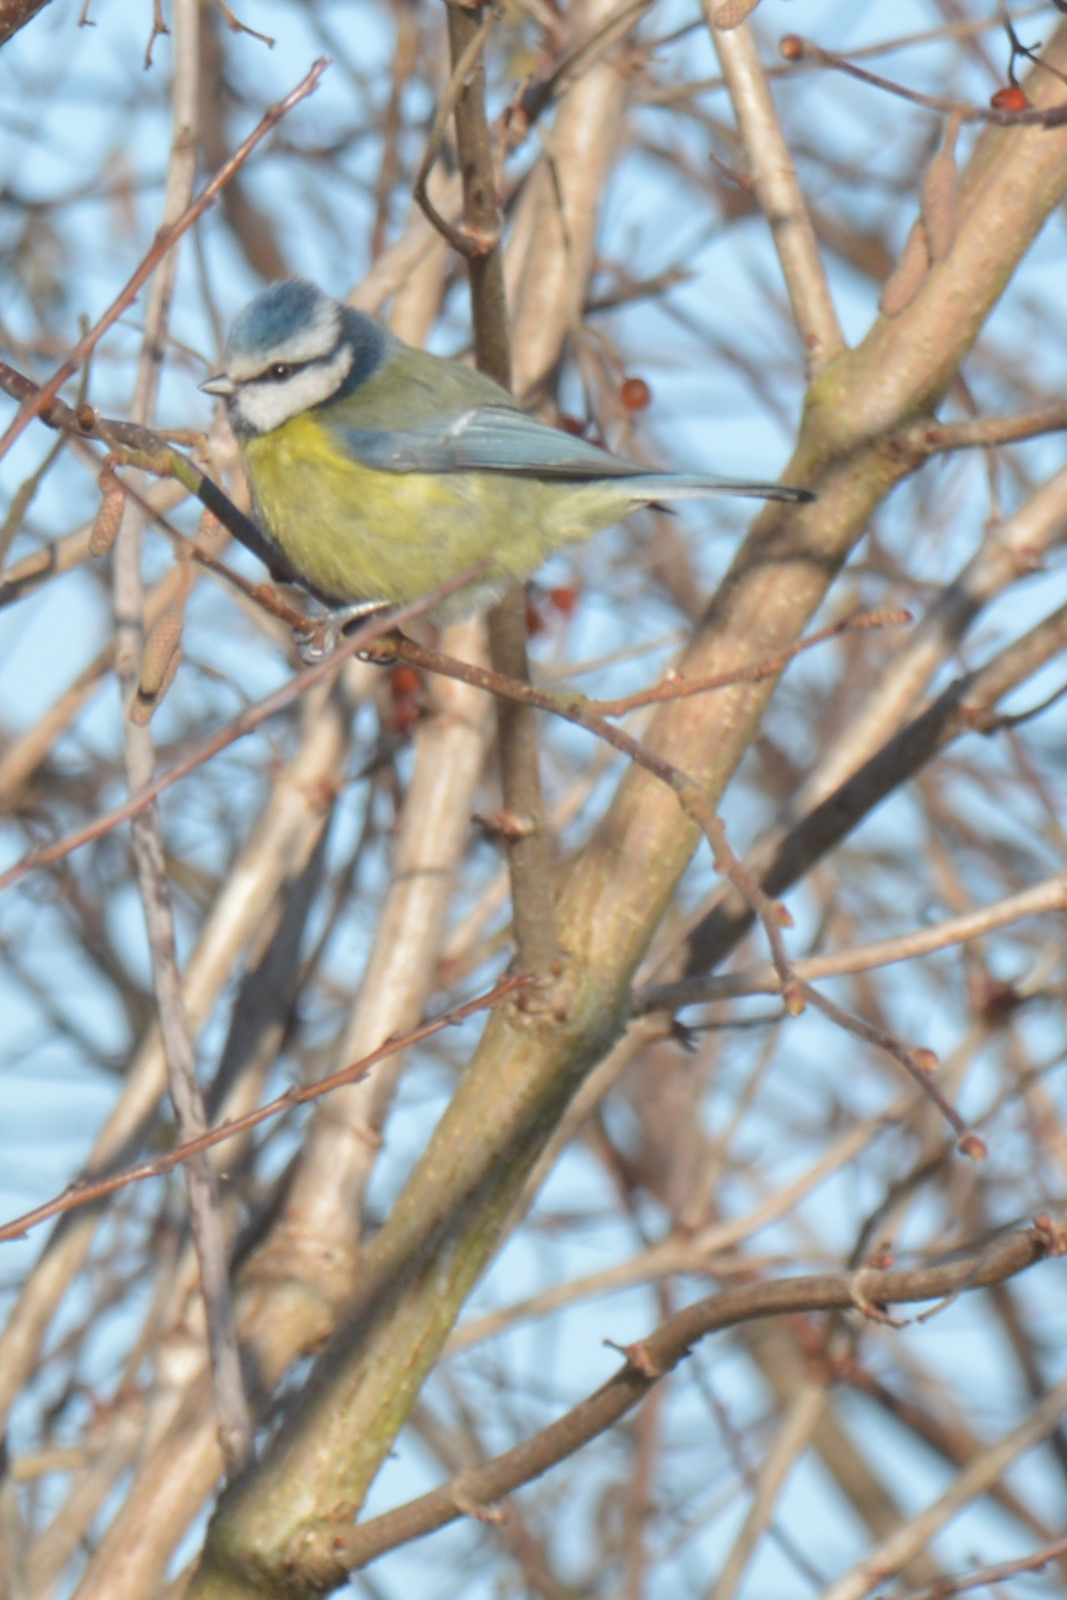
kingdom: Animalia
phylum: Chordata
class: Aves
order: Passeriformes
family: Paridae
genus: Cyanistes
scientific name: Cyanistes caeruleus
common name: Eurasian blue tit
